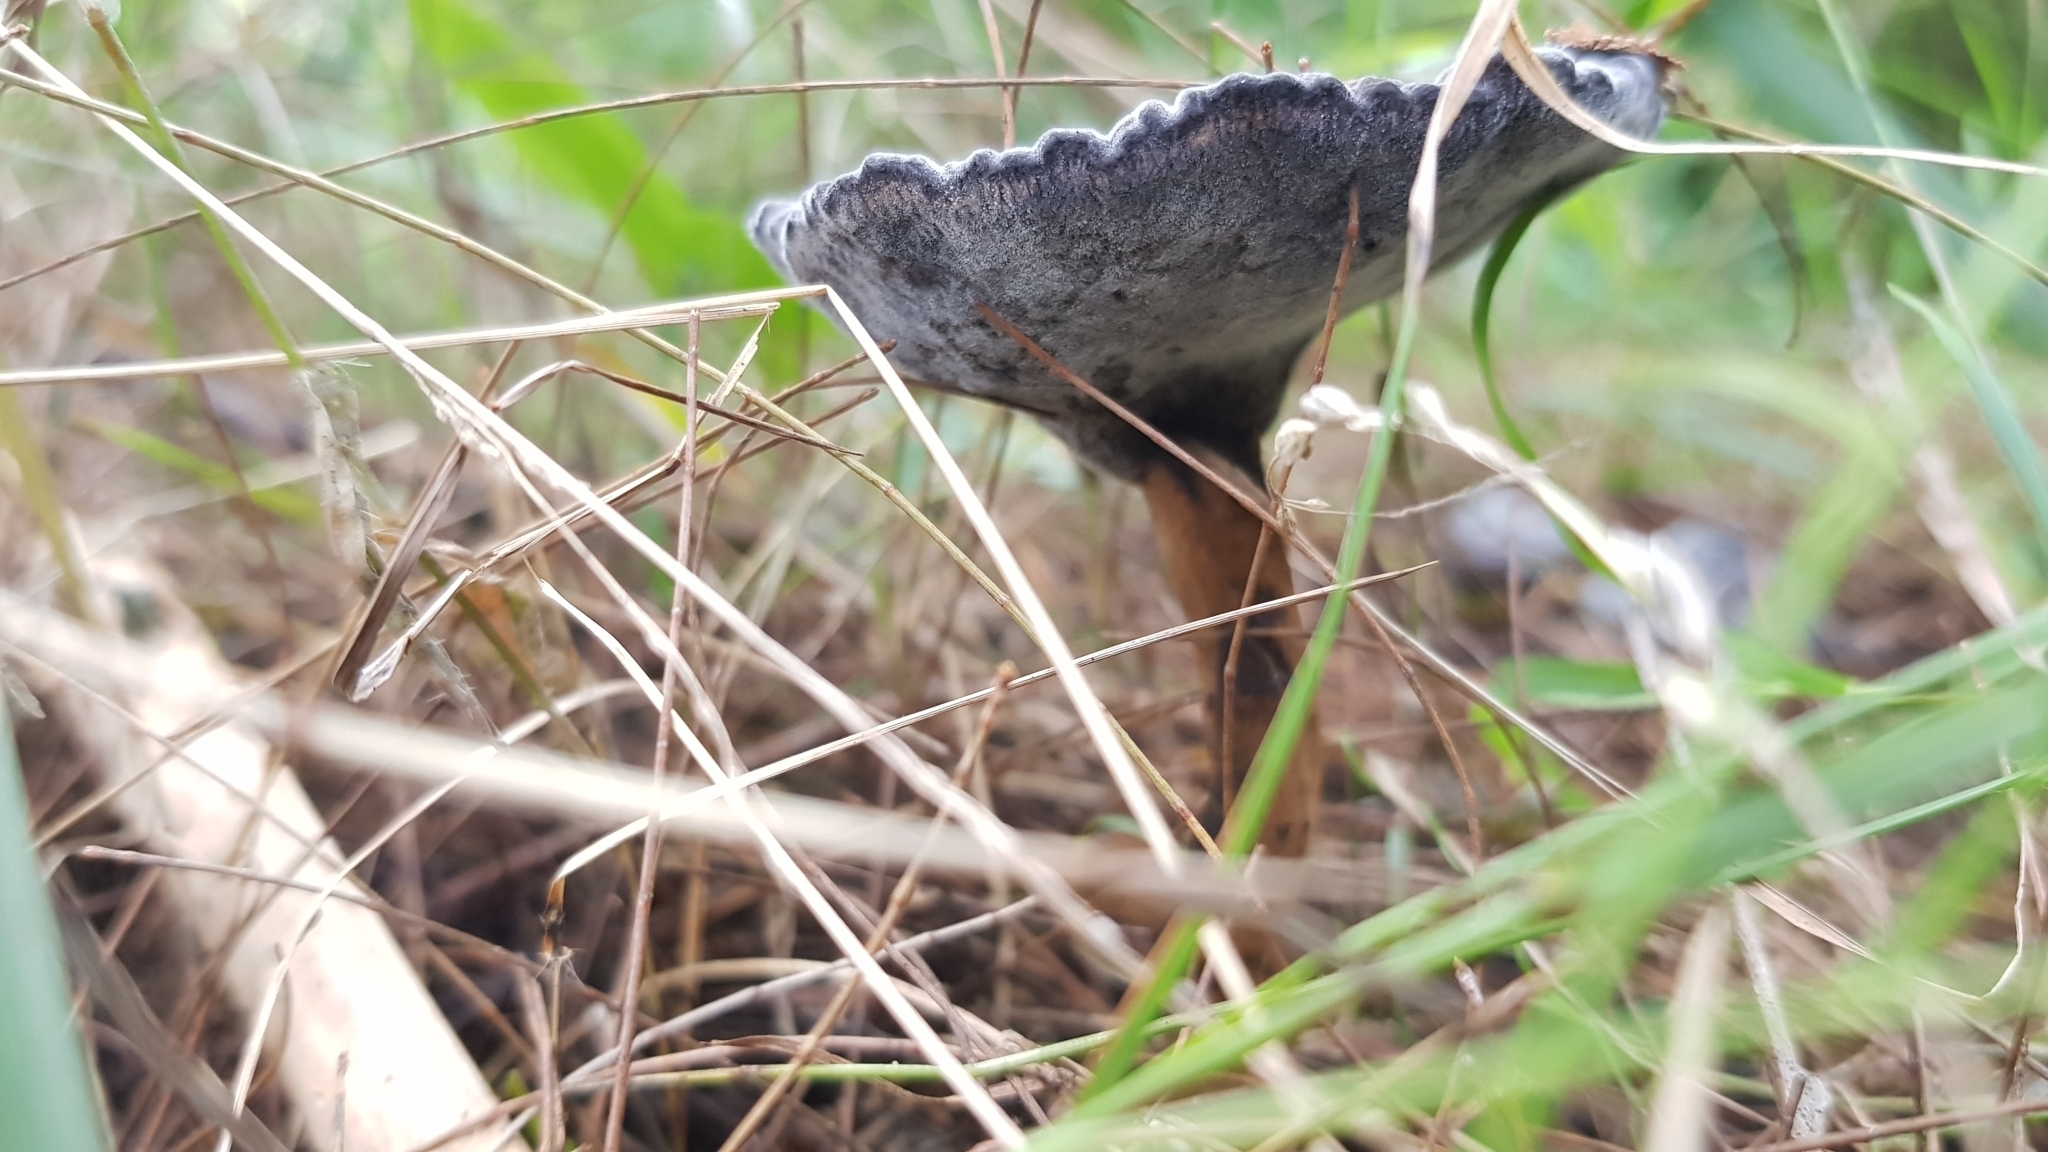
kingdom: Fungi
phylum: Basidiomycota
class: Agaricomycetes
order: Polyporales
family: Ganodermataceae
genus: Sanguinoderma
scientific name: Sanguinoderma rude
